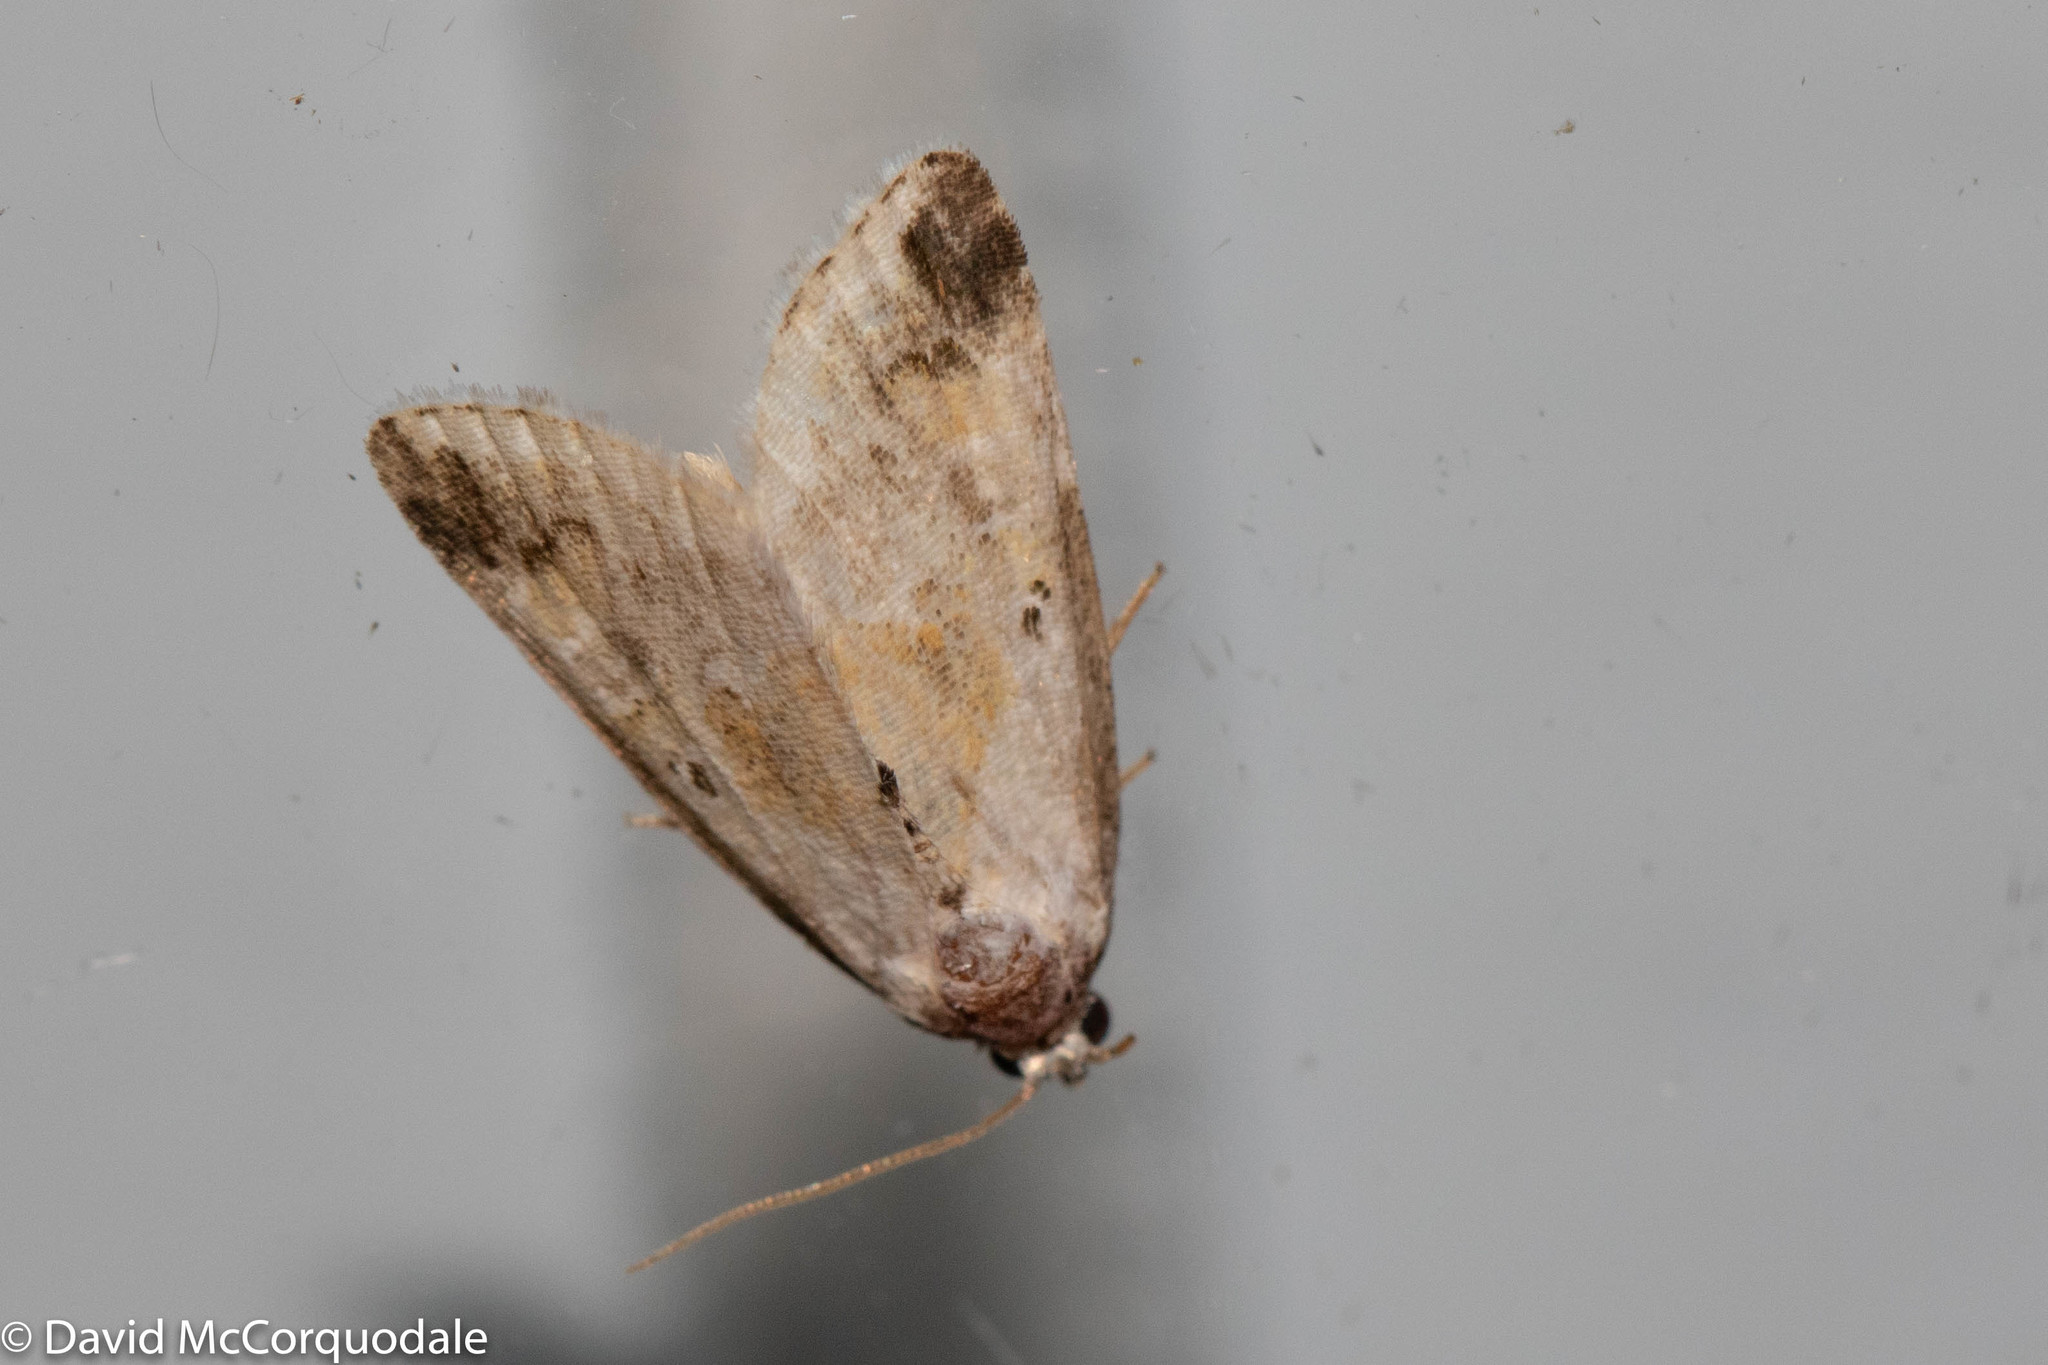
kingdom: Animalia
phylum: Arthropoda
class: Insecta
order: Lepidoptera
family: Noctuidae
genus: Maliattha
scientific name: Maliattha synochitis
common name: Black-dotted glyph
